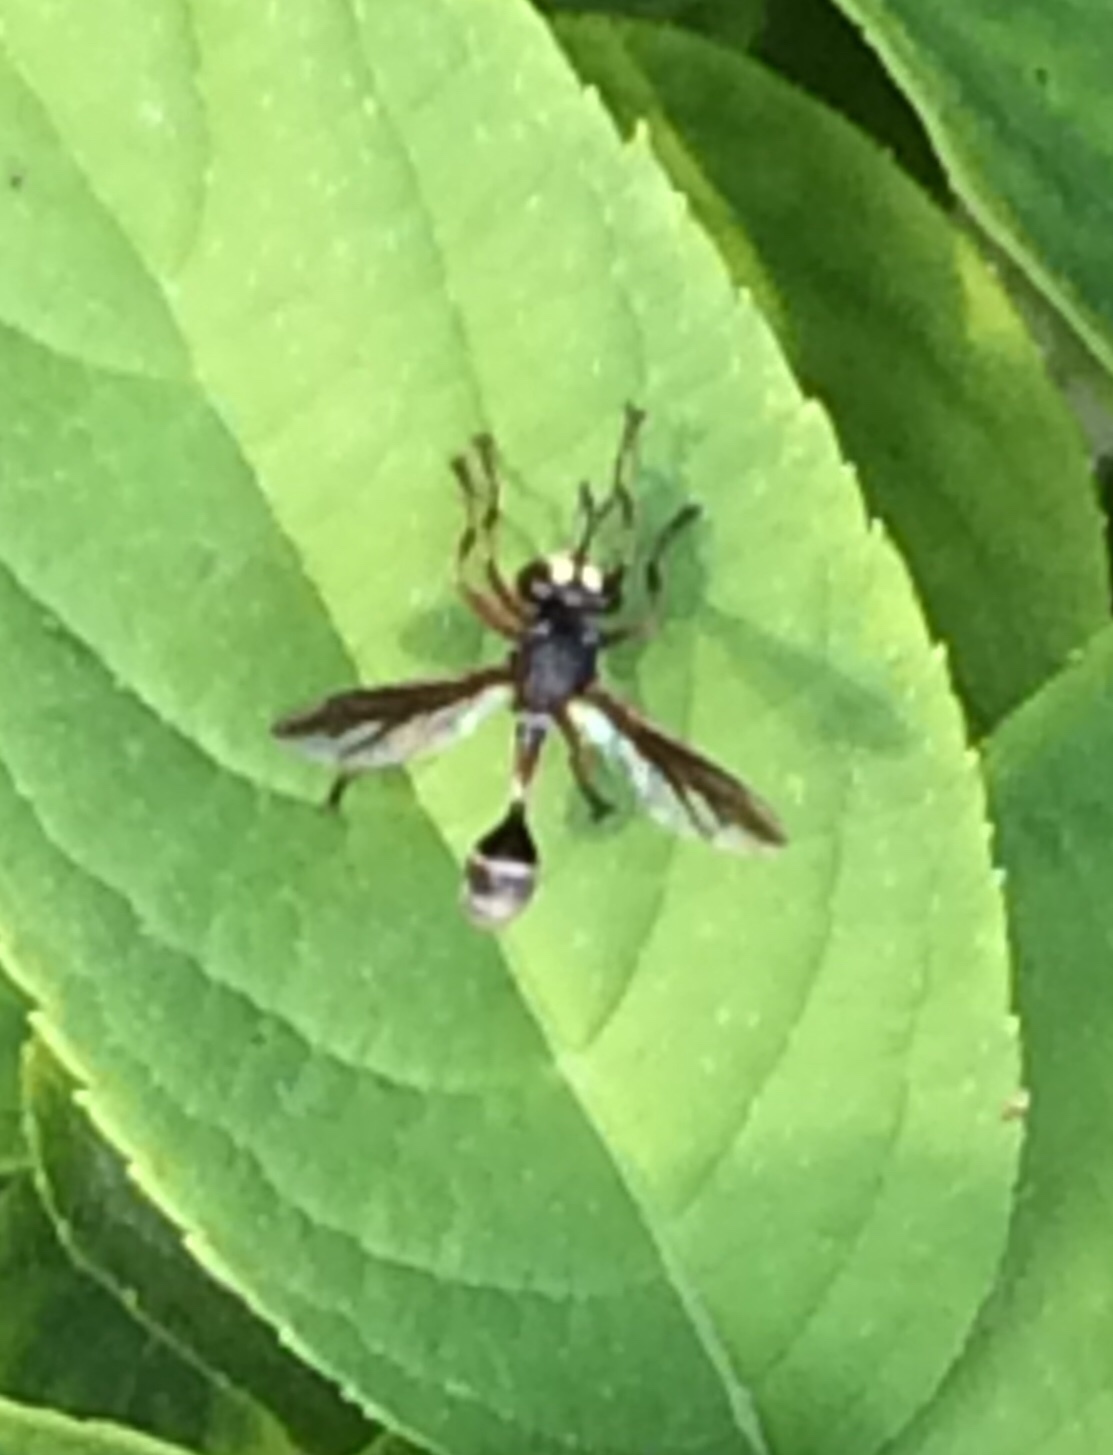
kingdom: Animalia
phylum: Arthropoda
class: Insecta
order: Diptera
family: Conopidae
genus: Physocephala
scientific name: Physocephala furcillata
